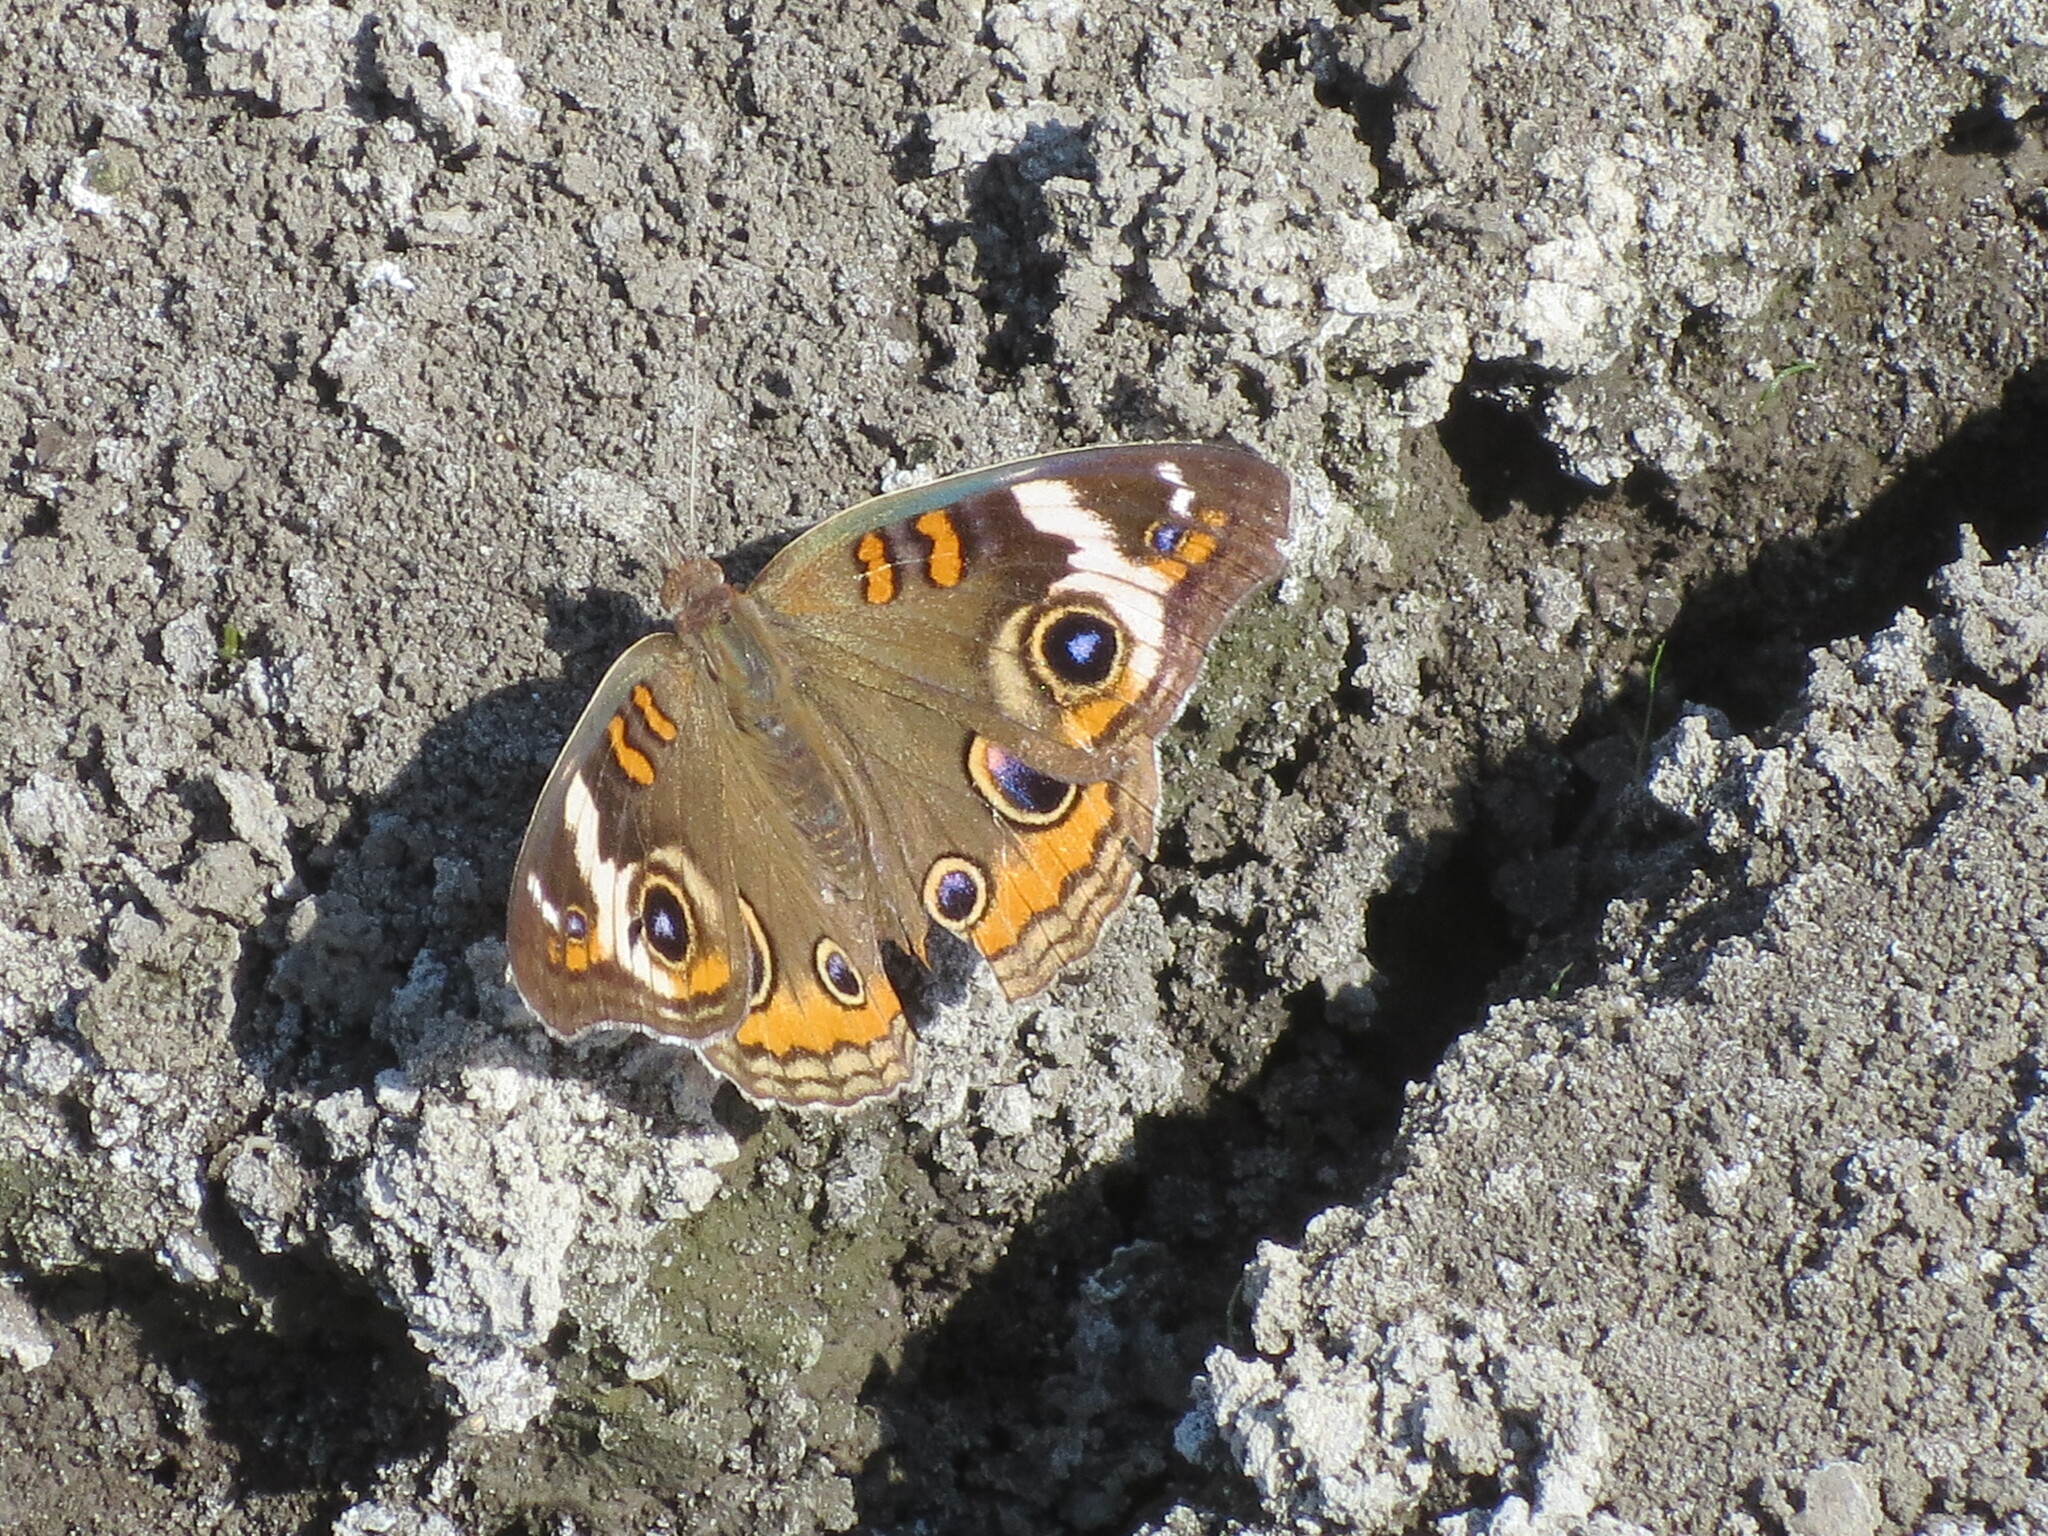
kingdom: Animalia
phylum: Arthropoda
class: Insecta
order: Lepidoptera
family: Nymphalidae
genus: Junonia
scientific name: Junonia coenia
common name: Common buckeye
